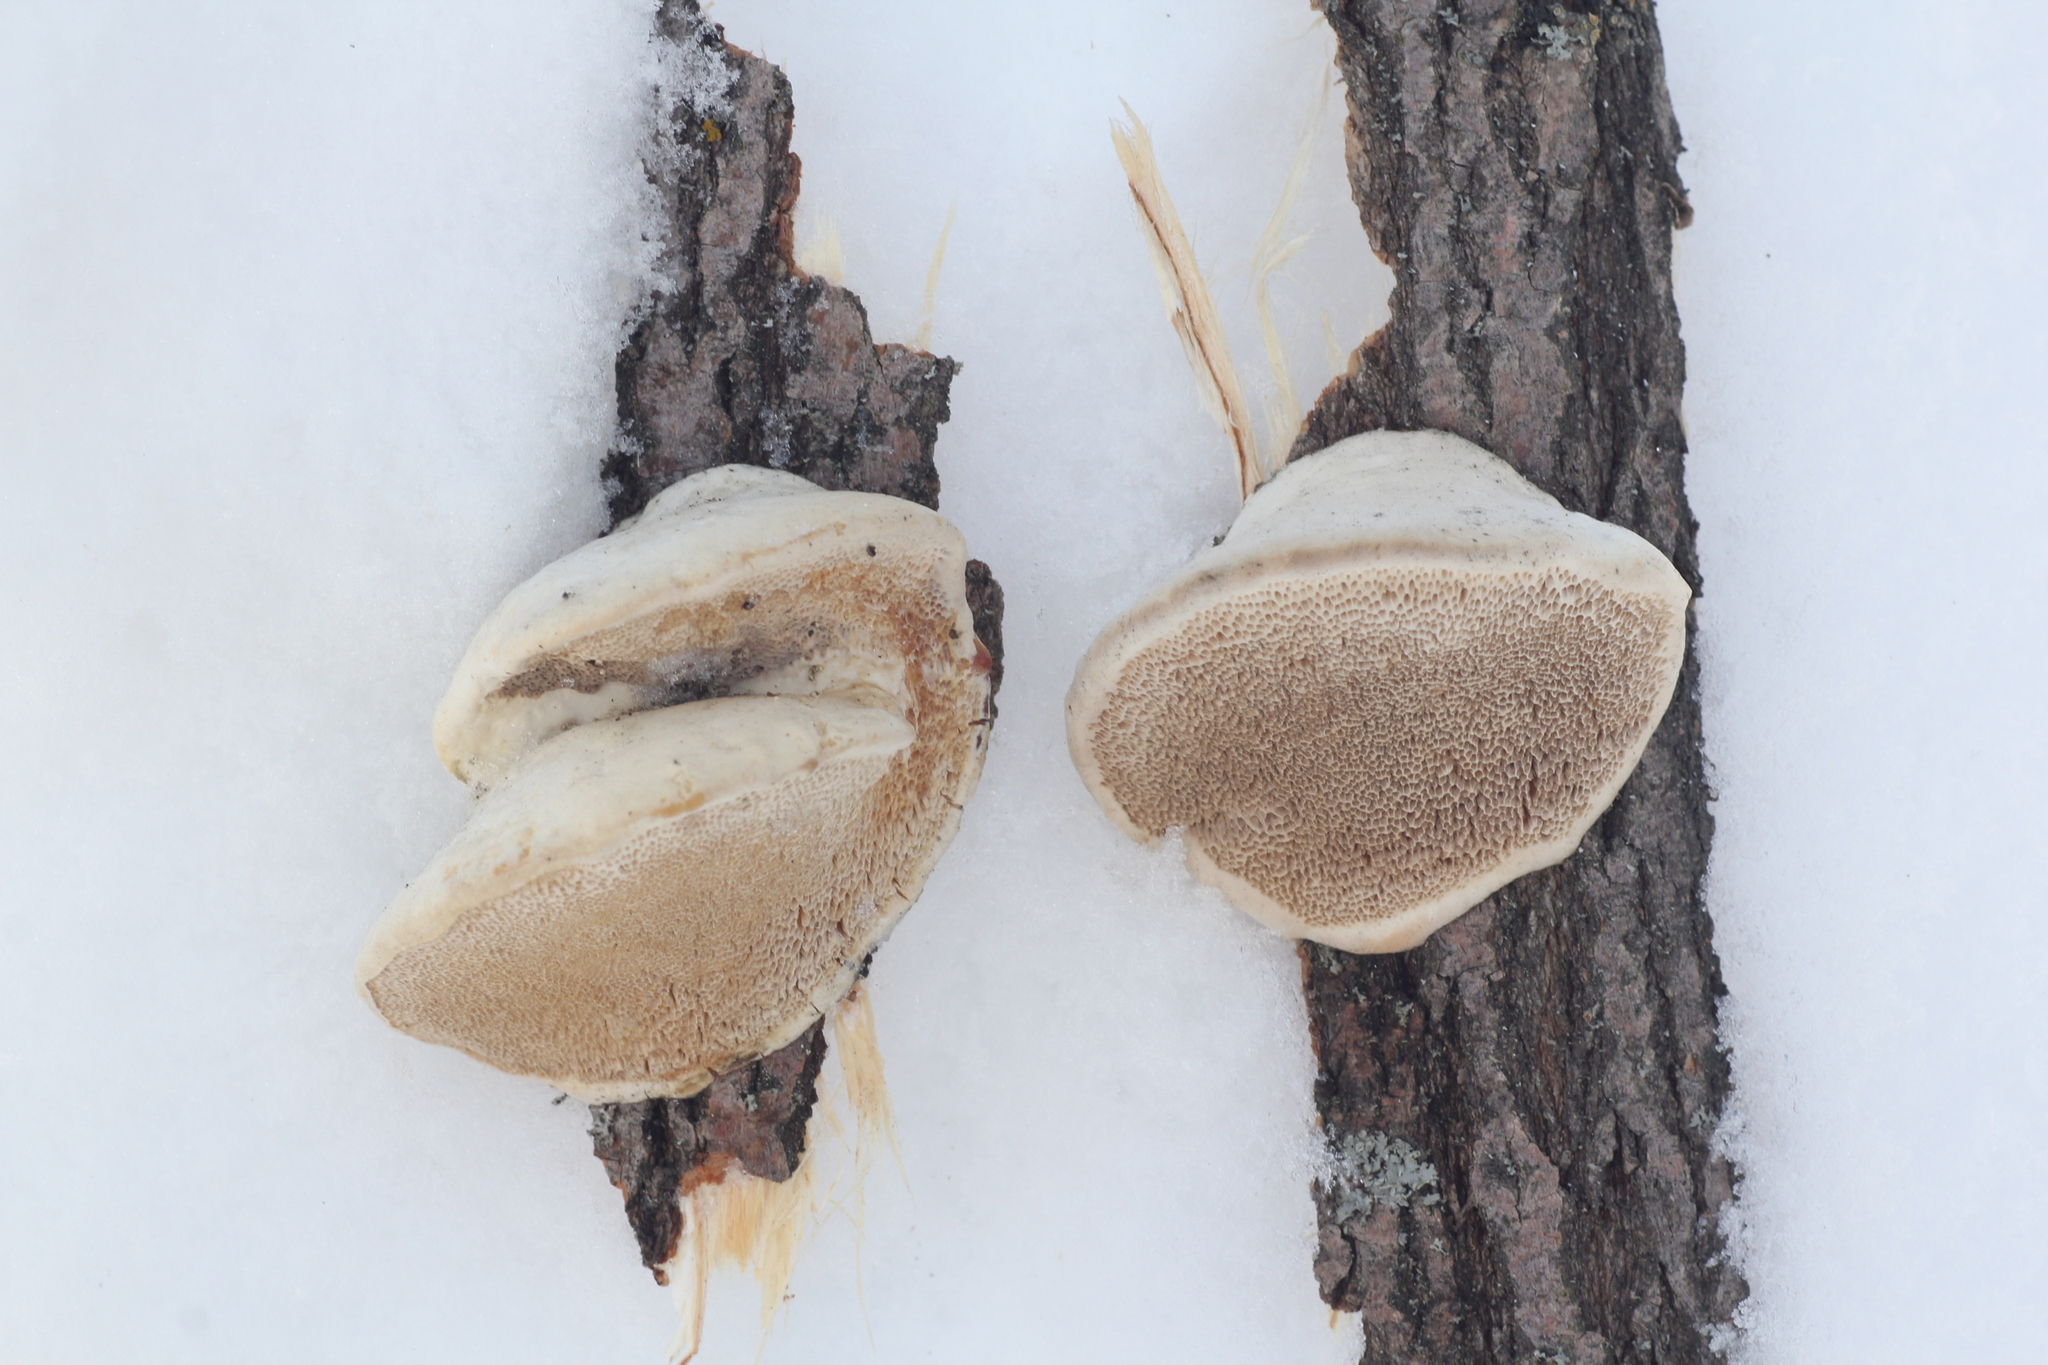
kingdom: Fungi
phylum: Basidiomycota
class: Agaricomycetes
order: Polyporales
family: Polyporaceae
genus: Trametes
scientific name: Trametes suaveolens
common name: Fragrant bracket
